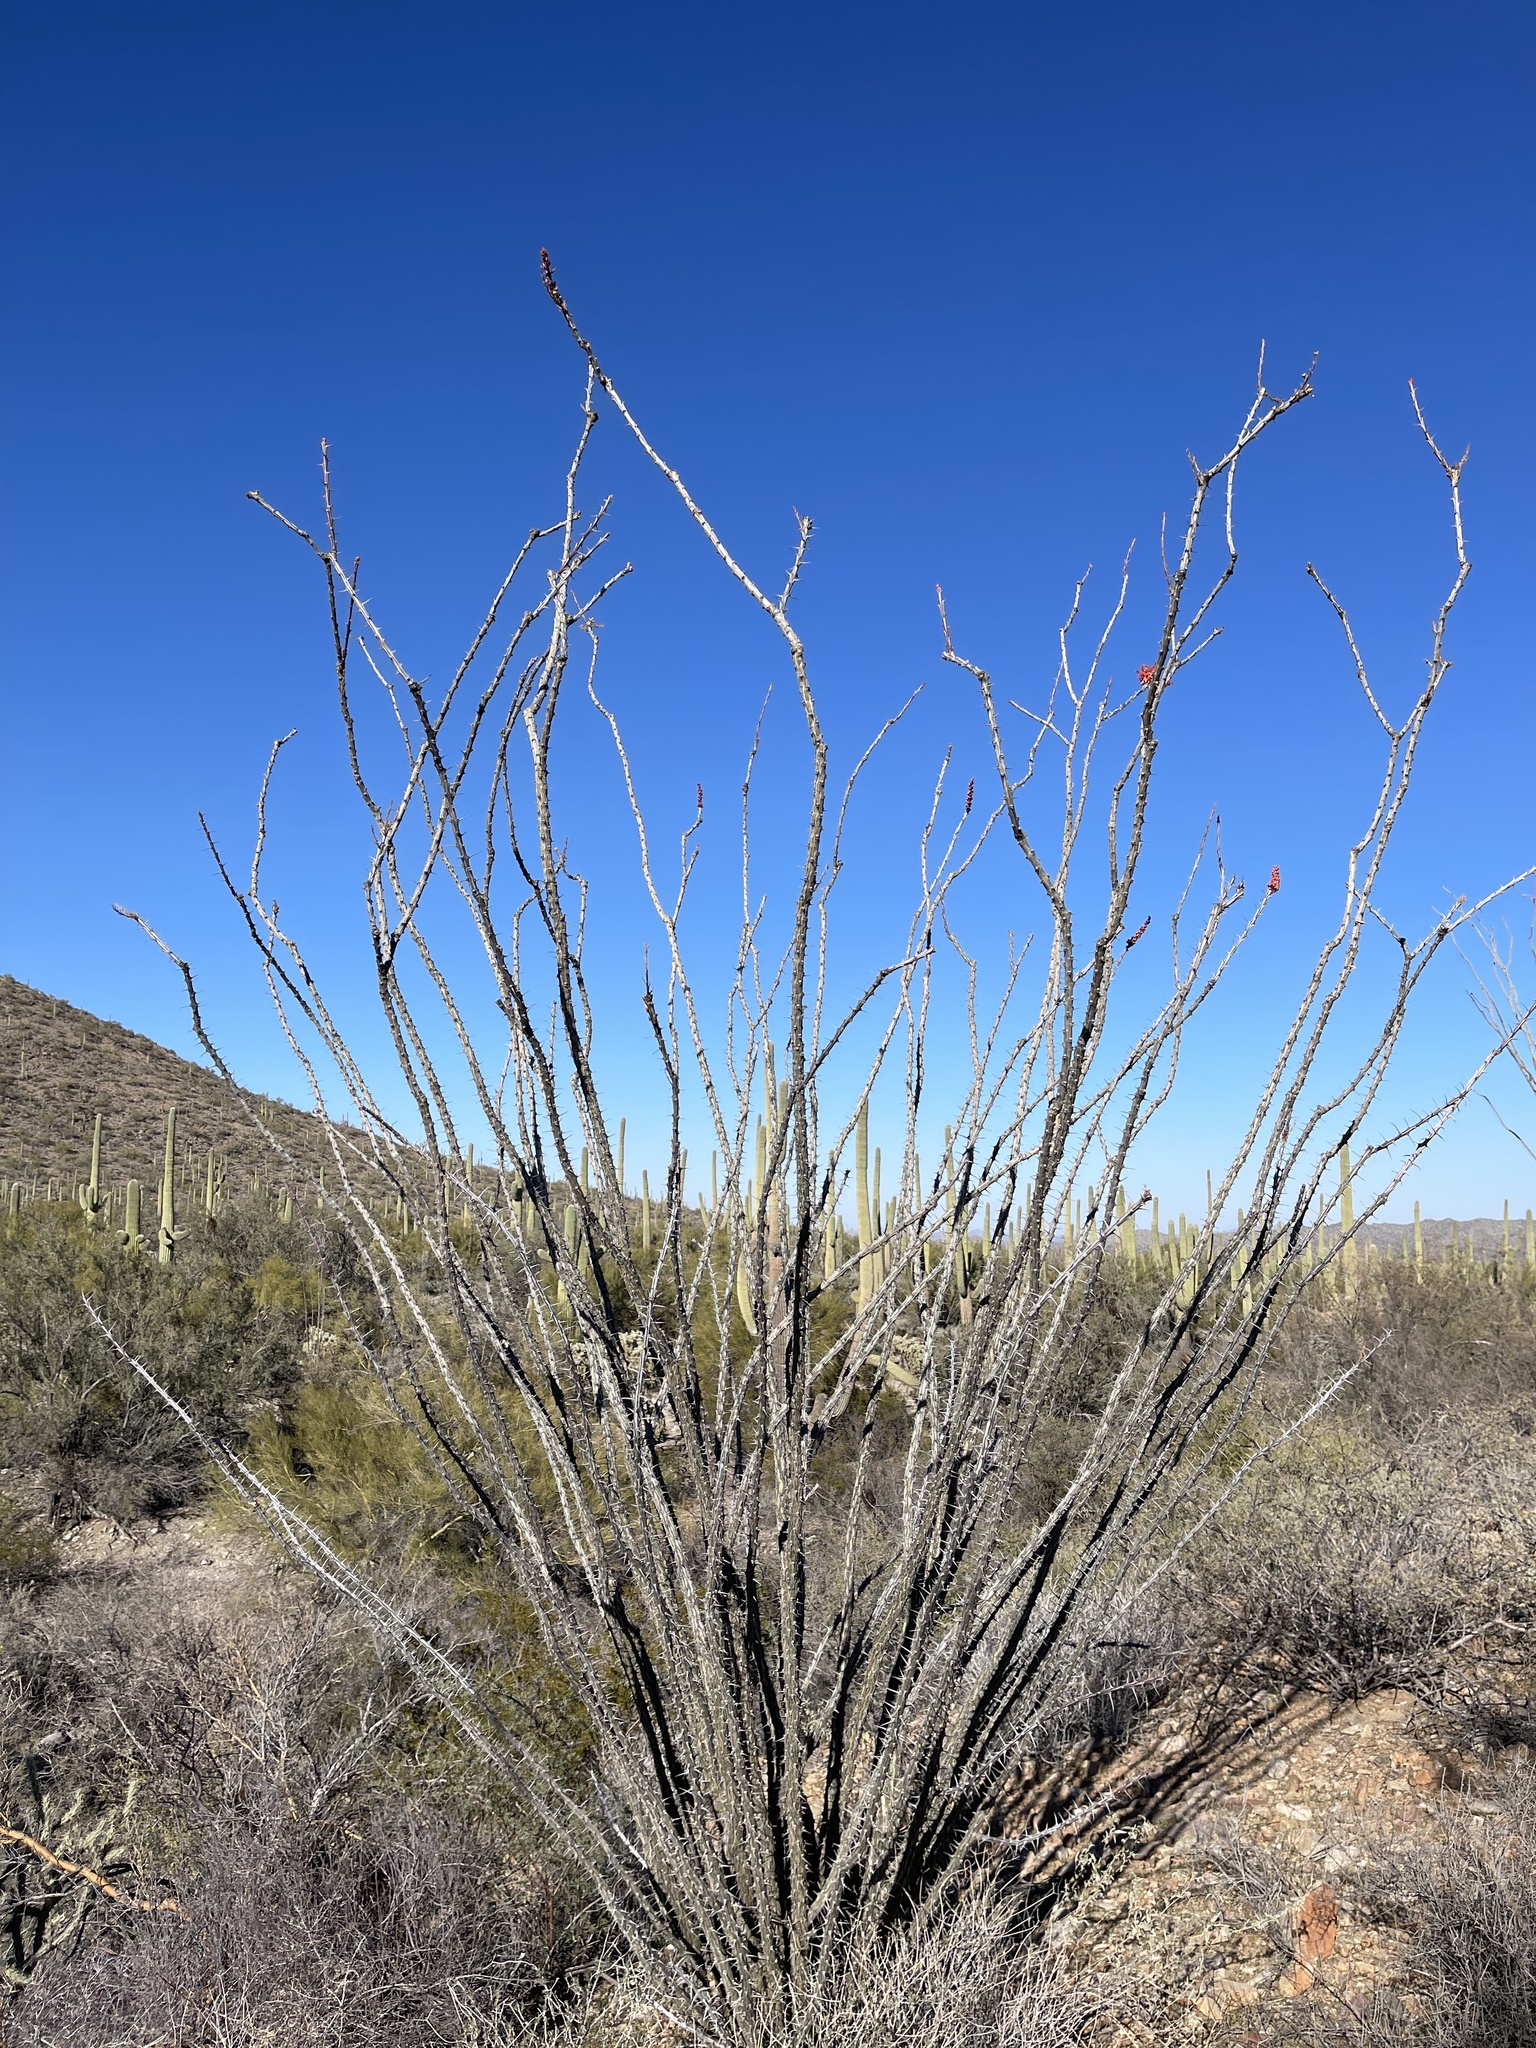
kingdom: Plantae
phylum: Tracheophyta
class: Magnoliopsida
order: Ericales
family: Fouquieriaceae
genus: Fouquieria
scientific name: Fouquieria splendens
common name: Vine-cactus
